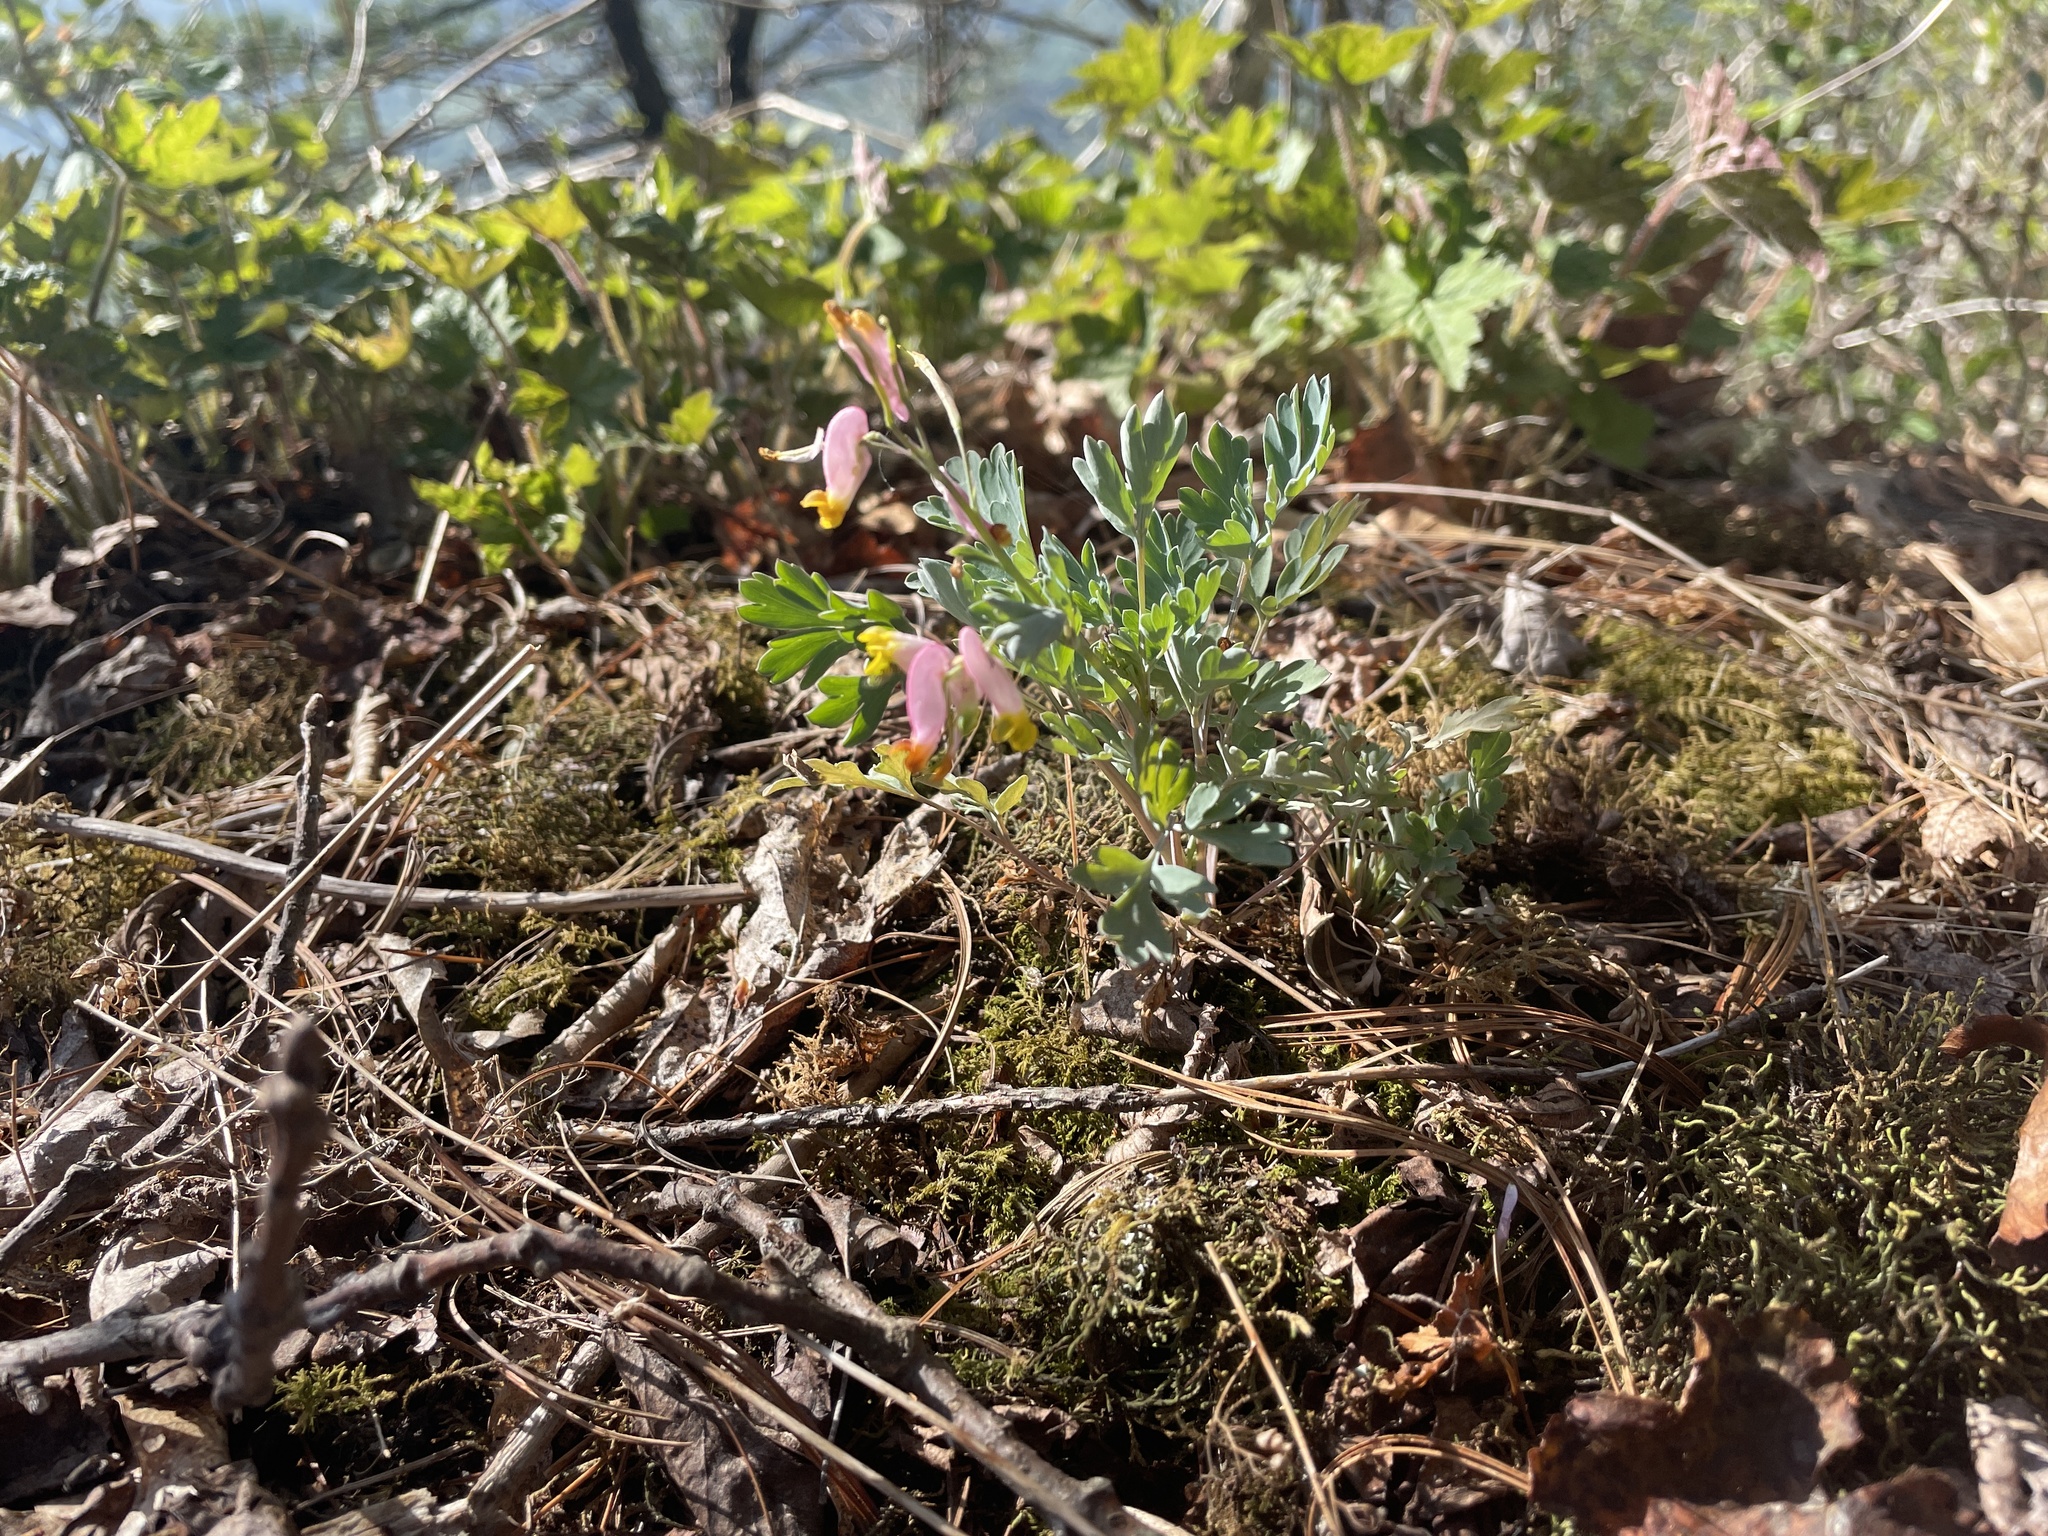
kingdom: Plantae
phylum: Tracheophyta
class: Magnoliopsida
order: Ranunculales
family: Papaveraceae
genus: Capnoides
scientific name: Capnoides sempervirens
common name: Rock harlequin
